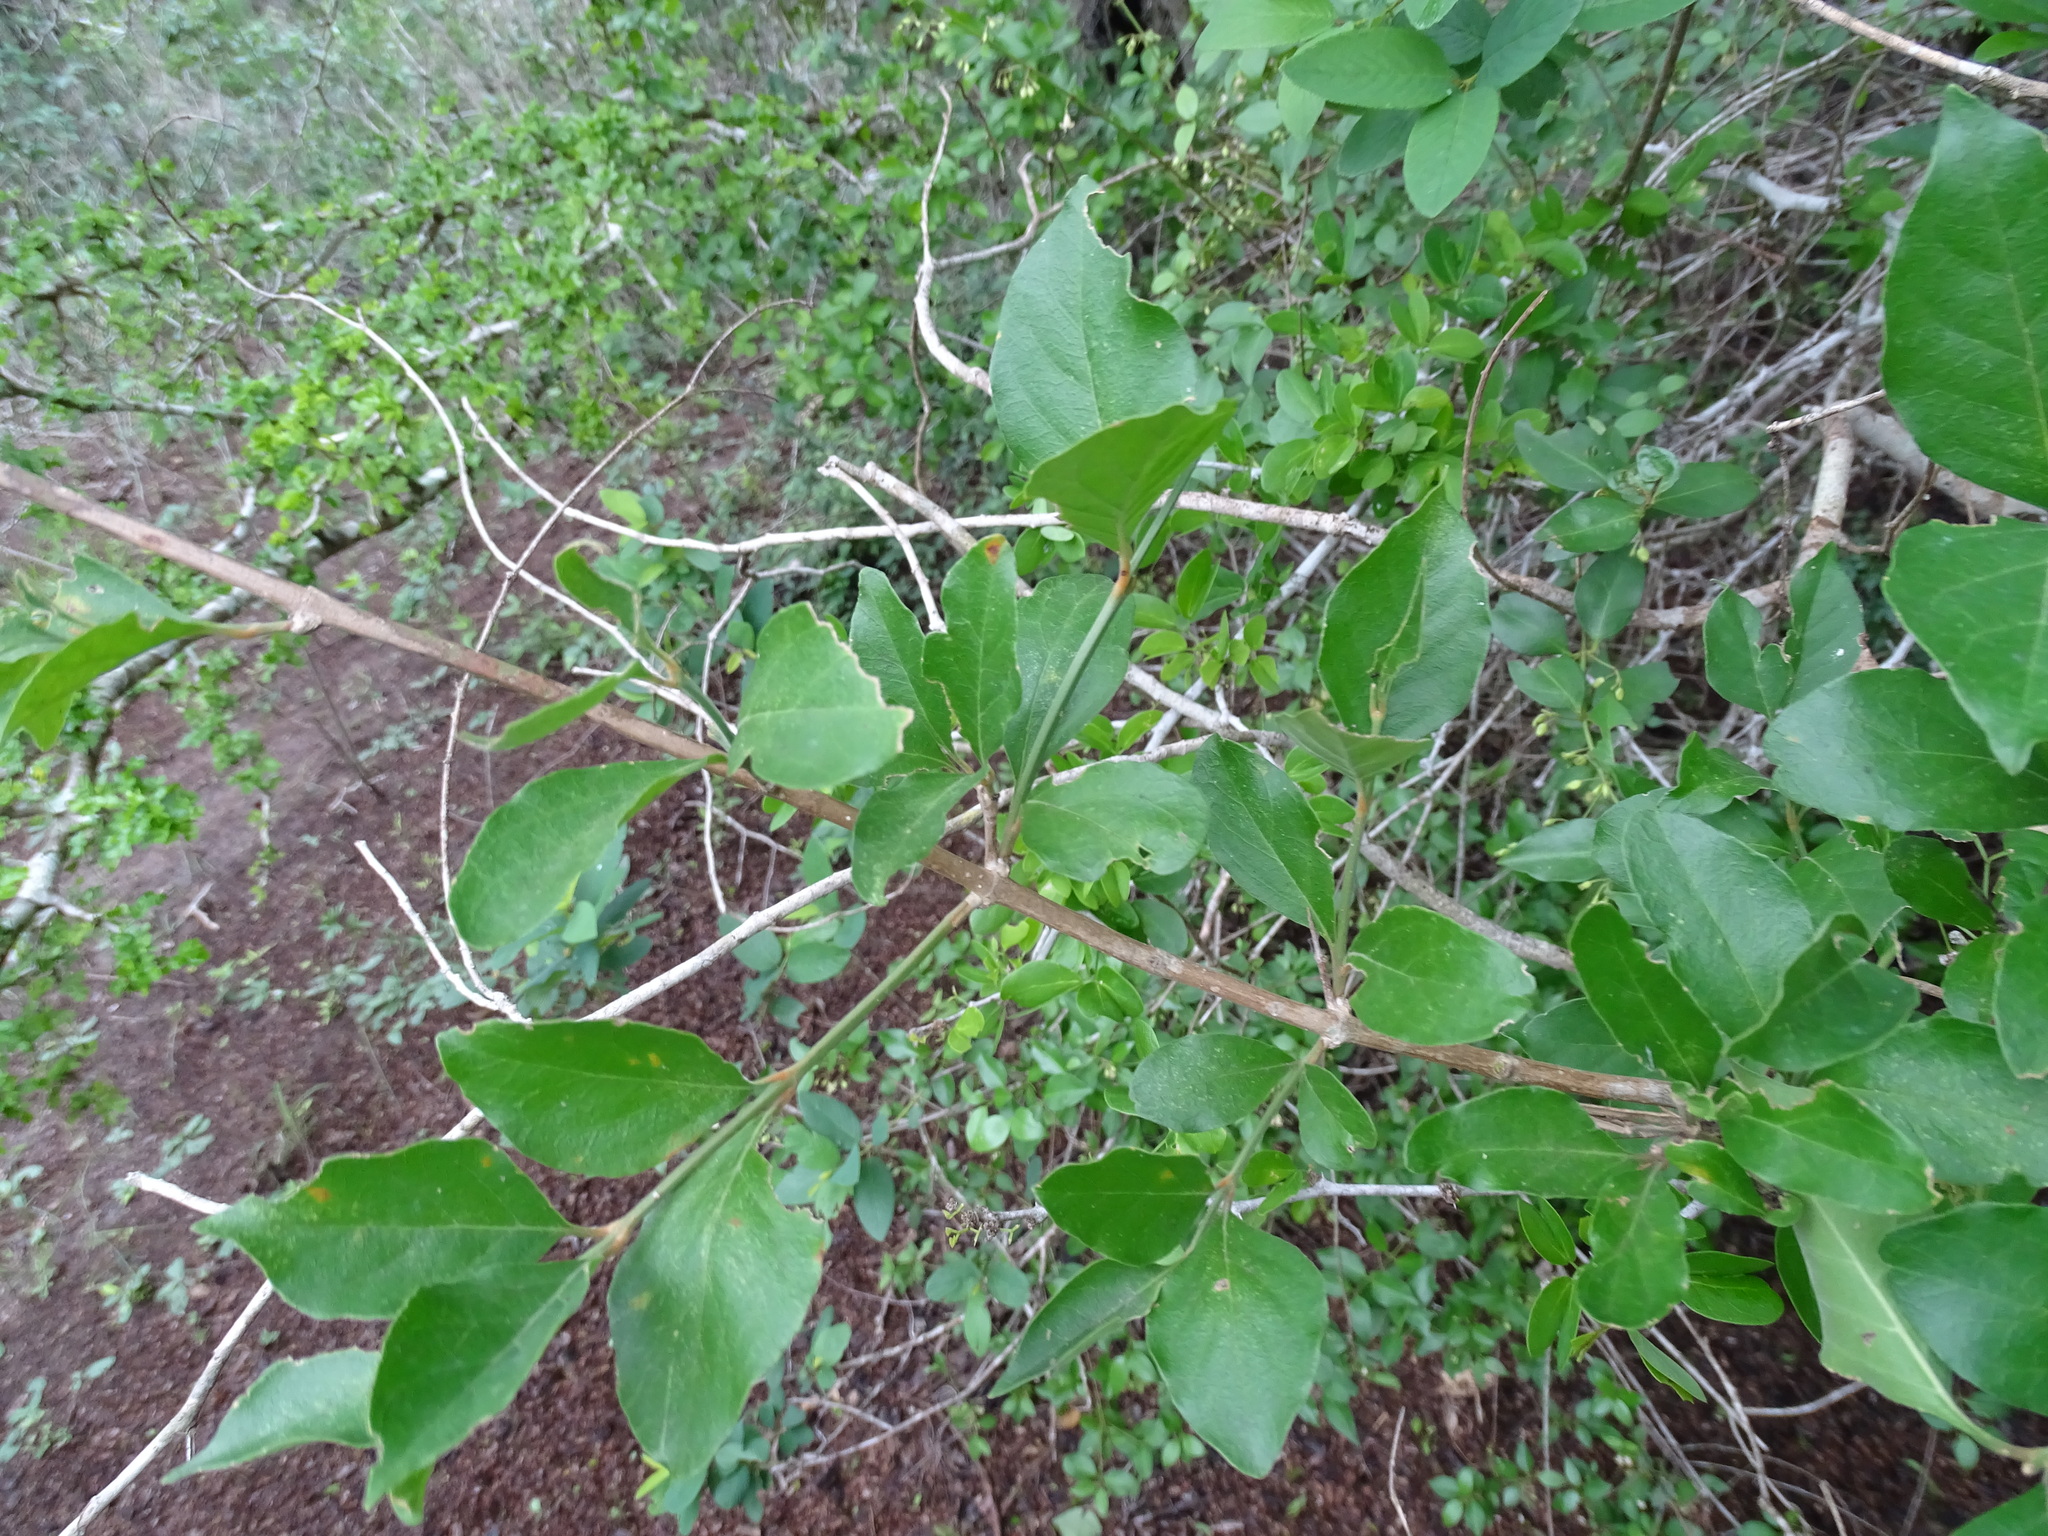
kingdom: Plantae
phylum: Tracheophyta
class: Magnoliopsida
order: Lamiales
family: Verbenaceae
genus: Citharexylum
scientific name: Citharexylum berlandieri
